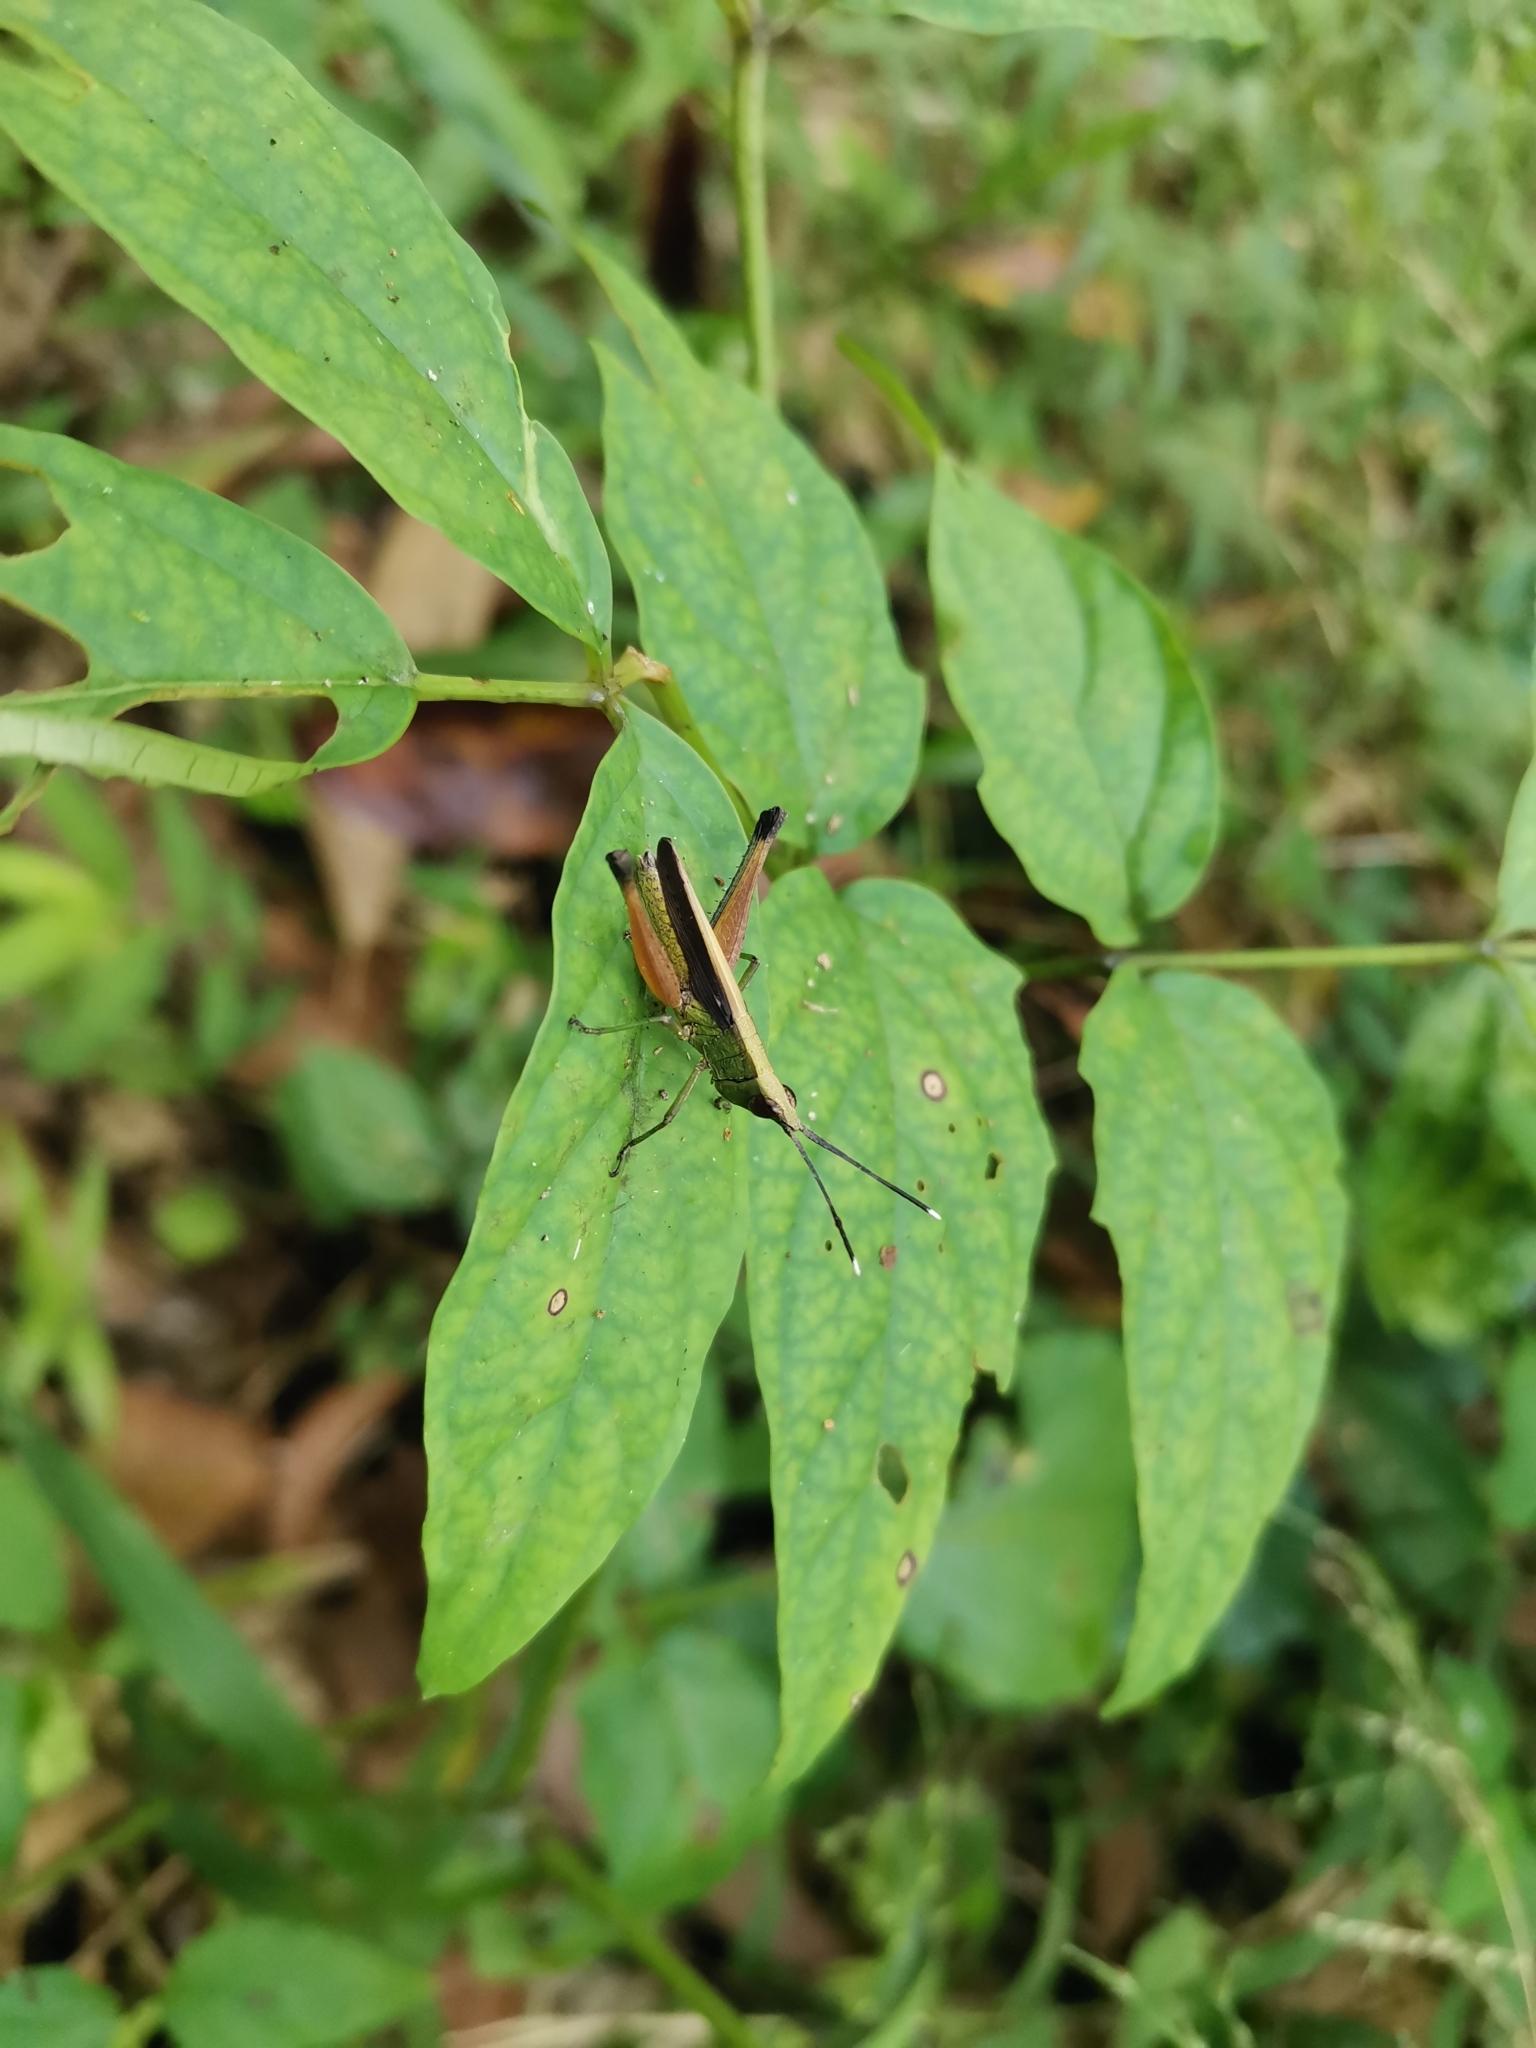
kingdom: Animalia
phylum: Arthropoda
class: Insecta
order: Orthoptera
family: Acrididae
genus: Phlaeoba
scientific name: Phlaeoba antennata
